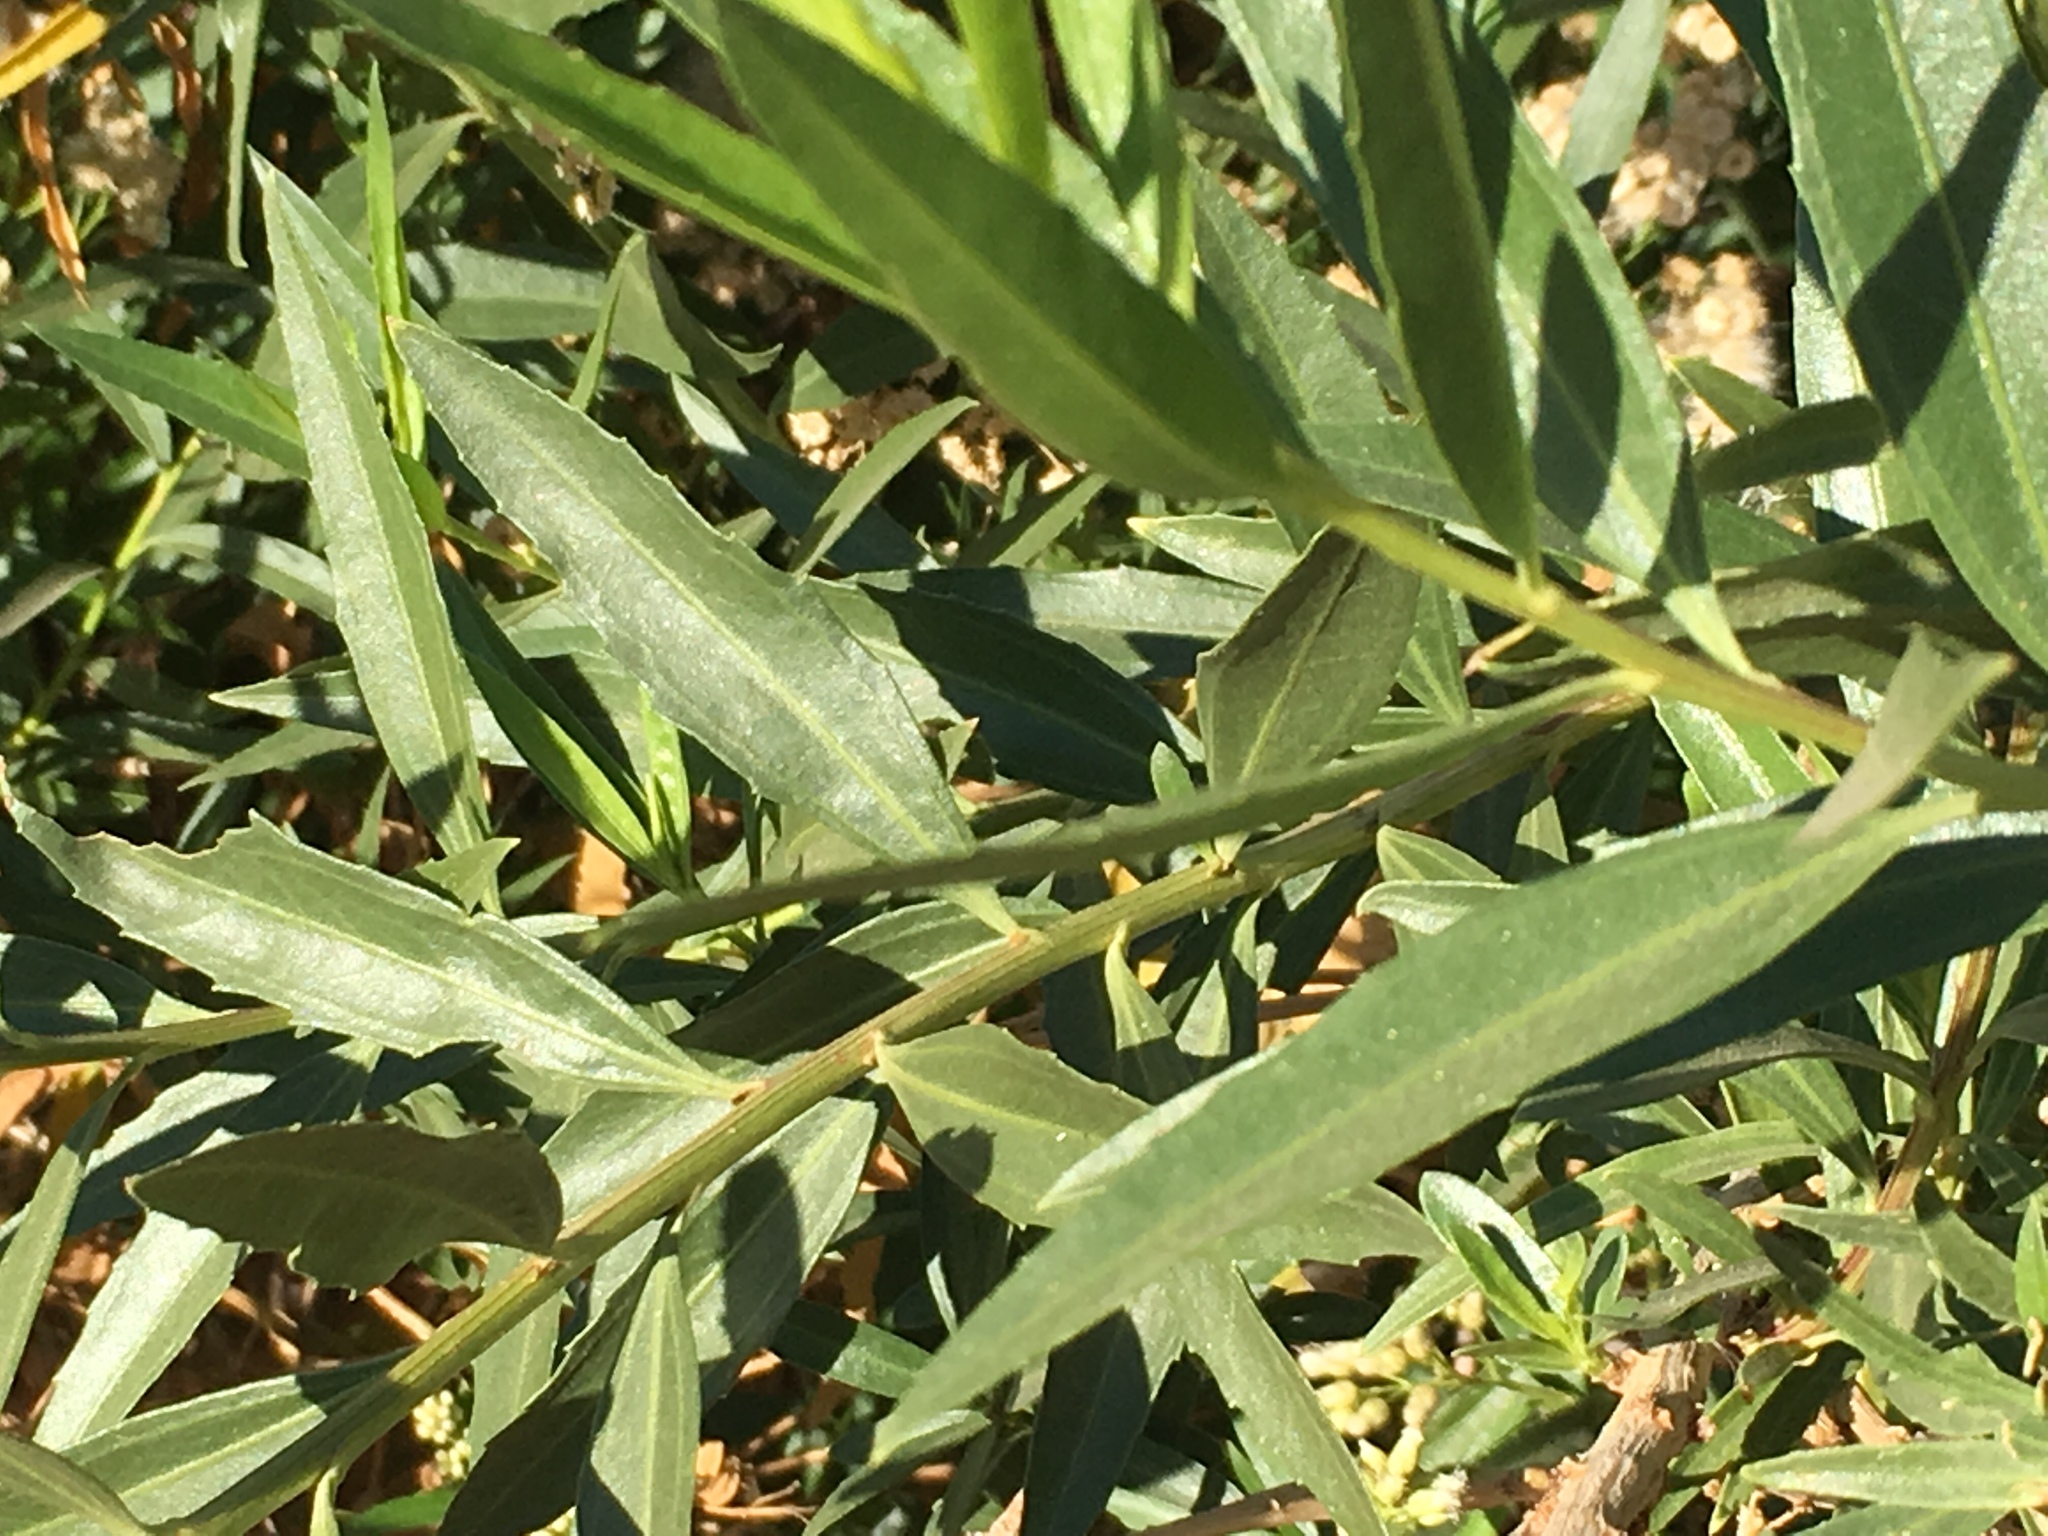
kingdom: Plantae
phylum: Tracheophyta
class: Magnoliopsida
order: Asterales
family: Asteraceae
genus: Baccharis
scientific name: Baccharis salicifolia
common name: Sticky baccharis
